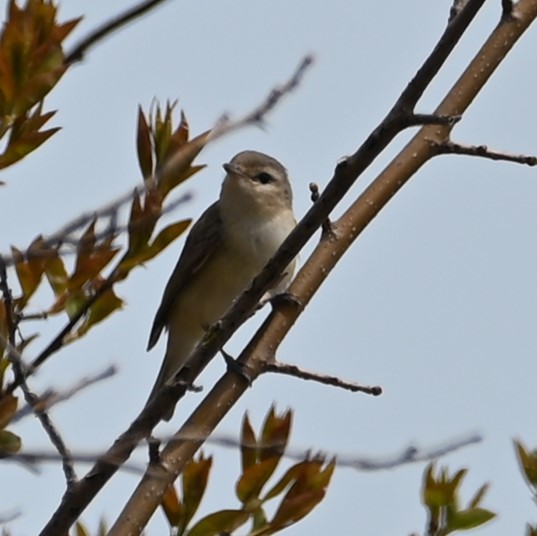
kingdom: Animalia
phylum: Chordata
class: Aves
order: Passeriformes
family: Vireonidae
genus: Vireo
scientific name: Vireo gilvus
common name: Warbling vireo
